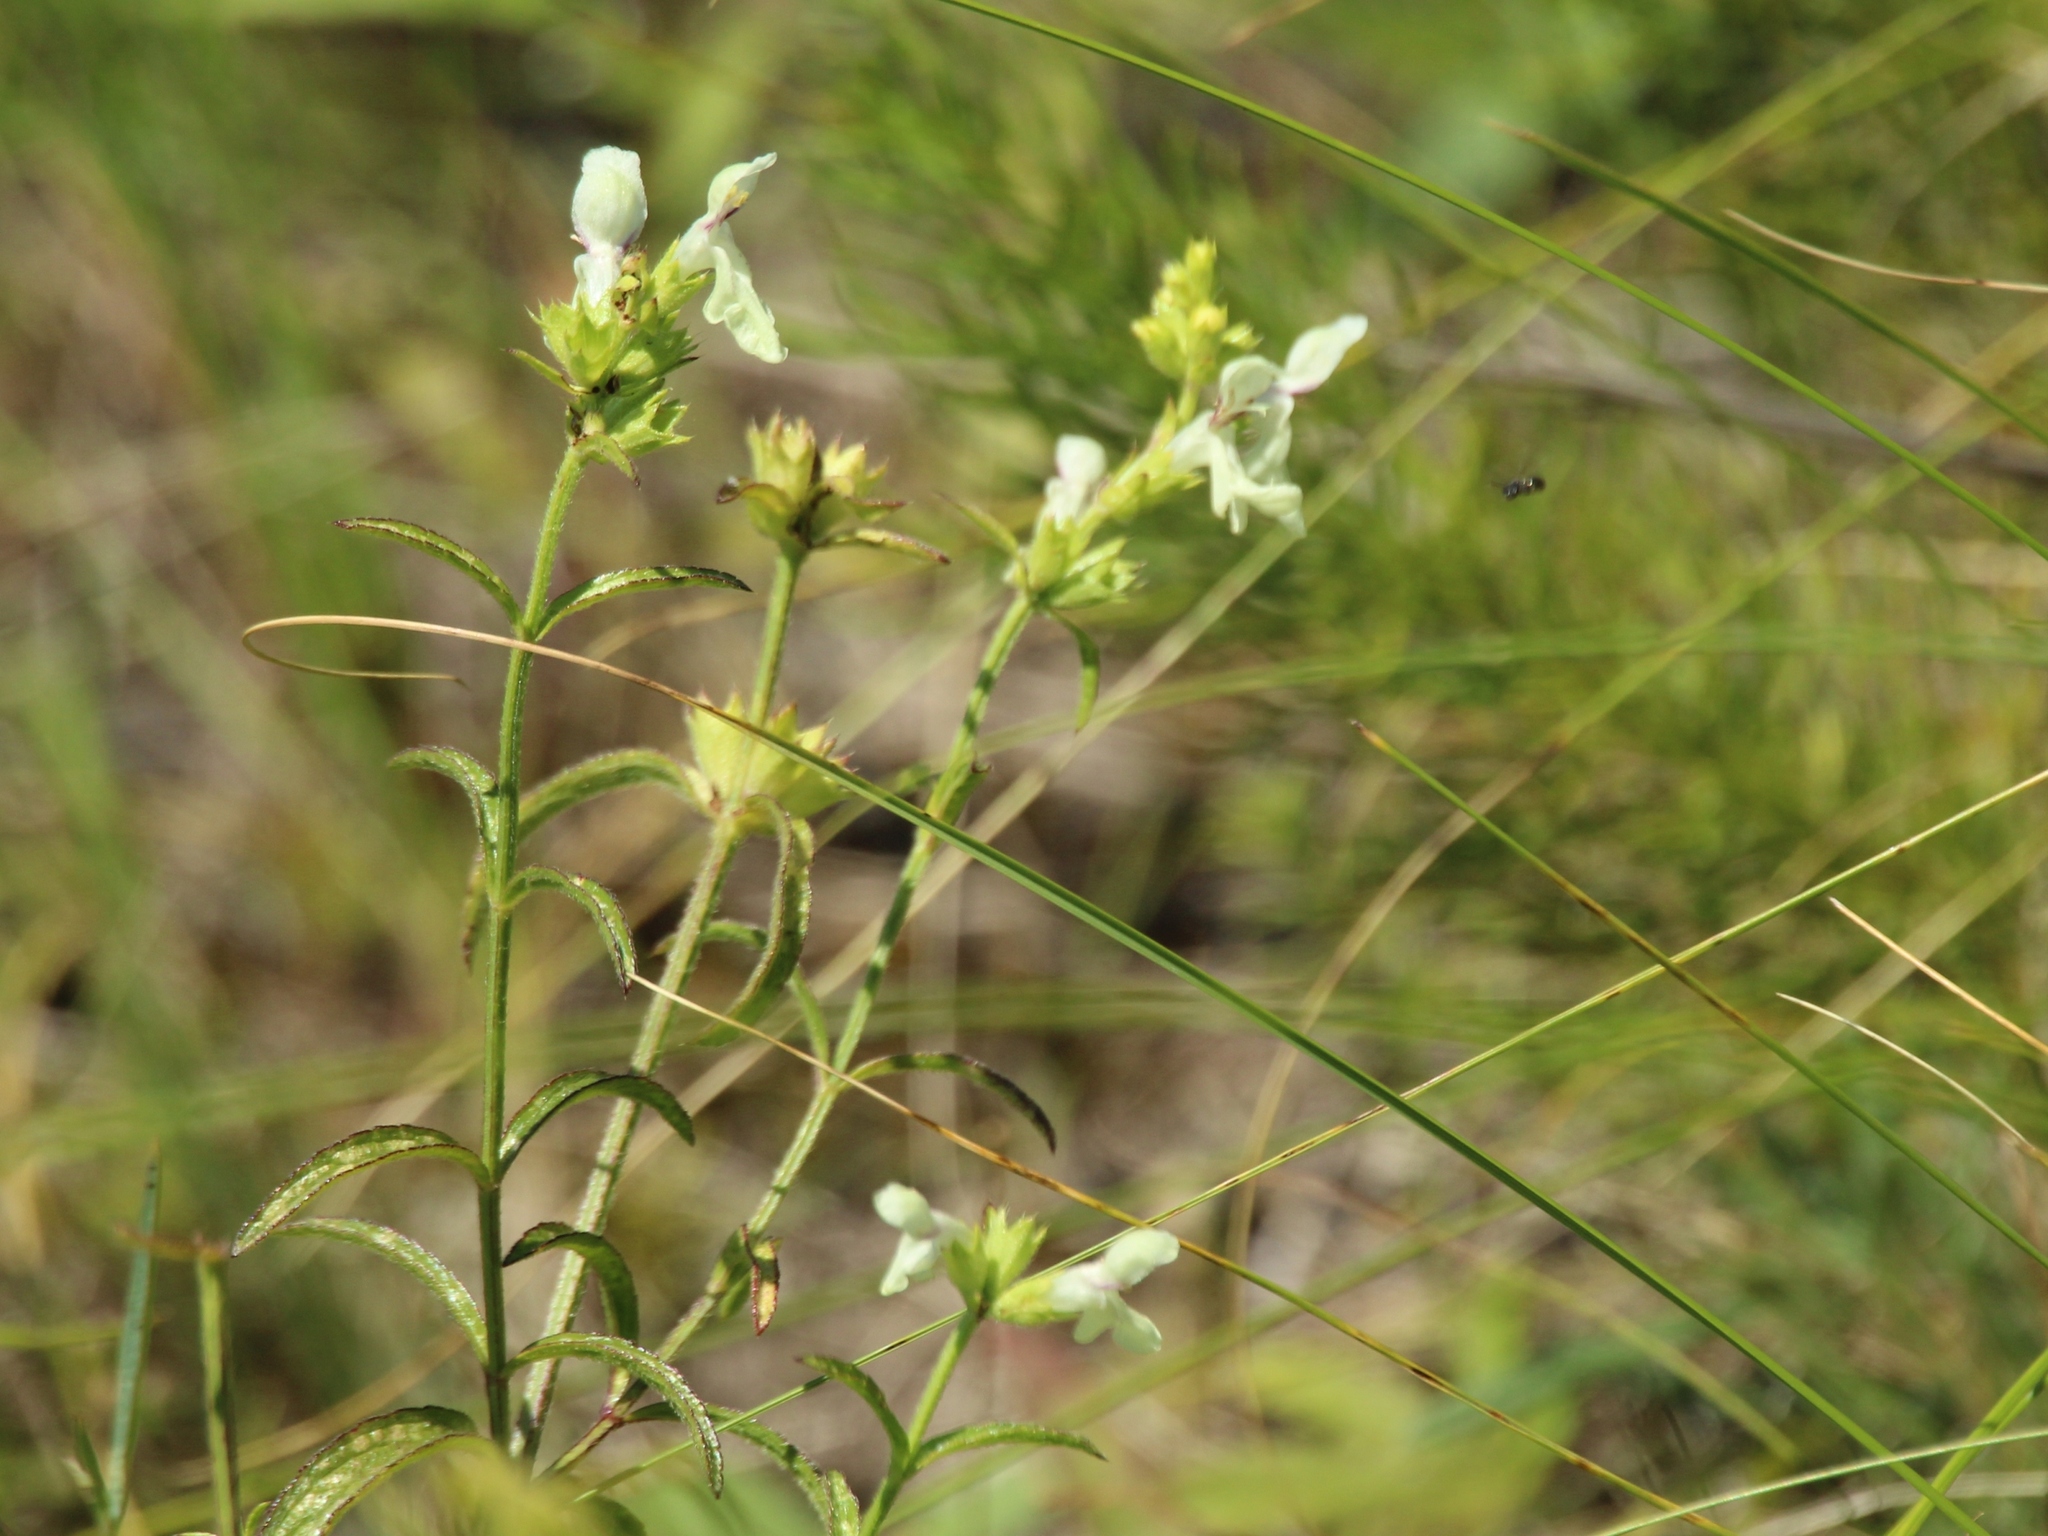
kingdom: Plantae
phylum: Tracheophyta
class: Magnoliopsida
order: Lamiales
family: Lamiaceae
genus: Stachys
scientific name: Stachys recta
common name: Perennial yellow-woundwort
